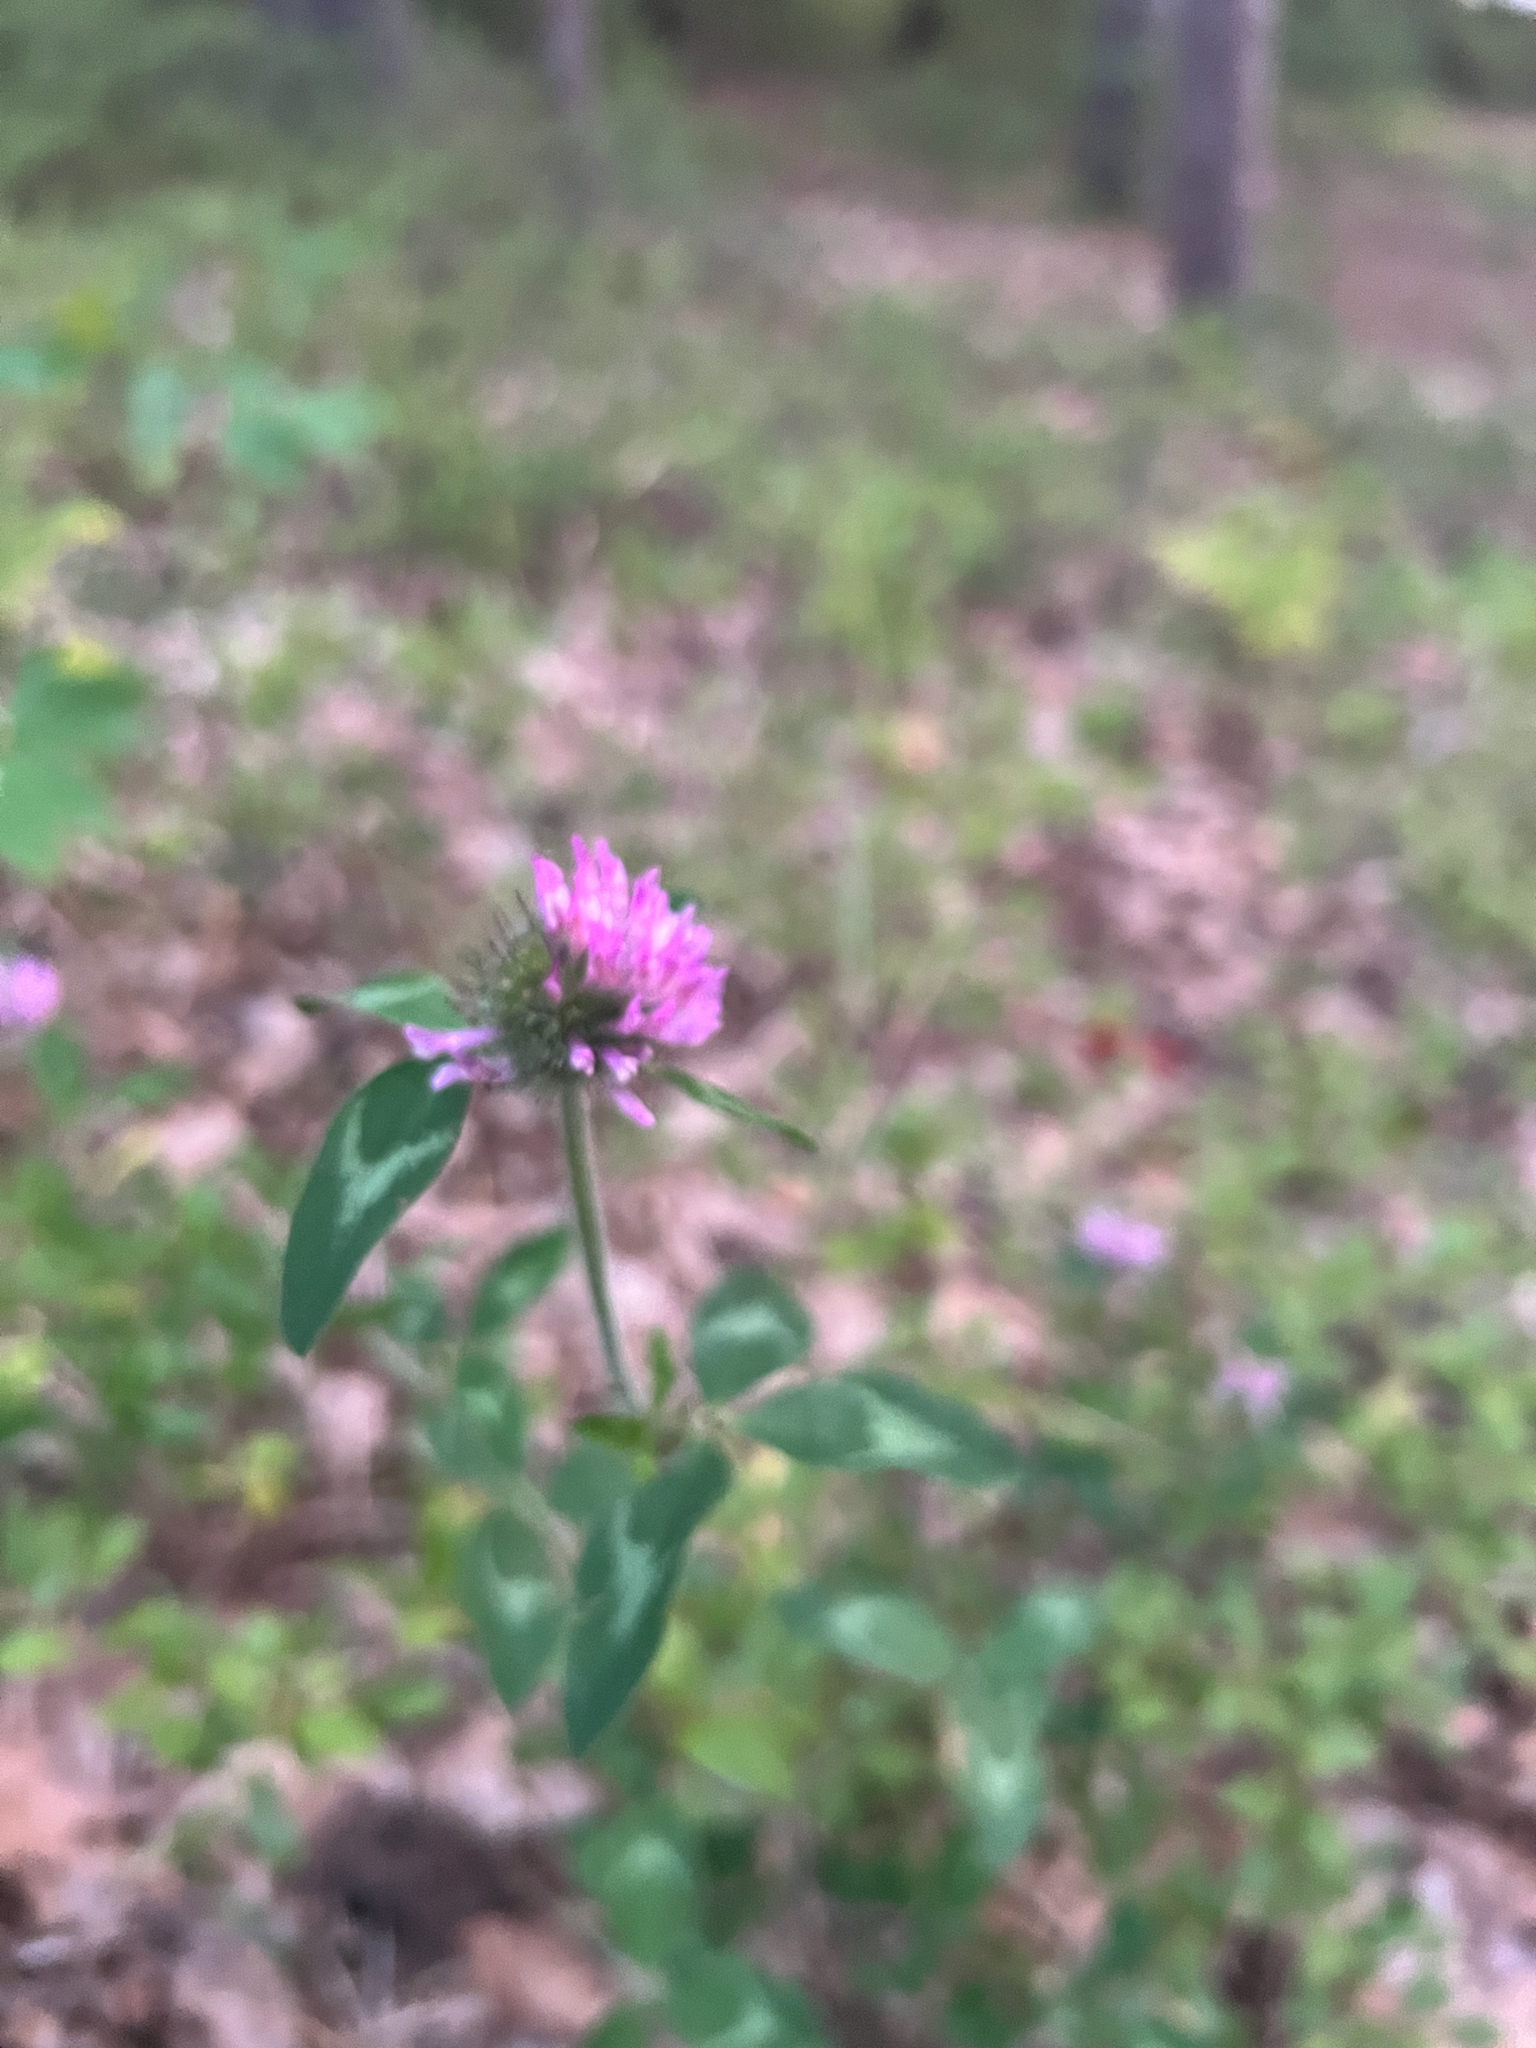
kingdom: Plantae
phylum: Tracheophyta
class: Magnoliopsida
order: Fabales
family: Fabaceae
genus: Trifolium
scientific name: Trifolium pratense
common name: Red clover
